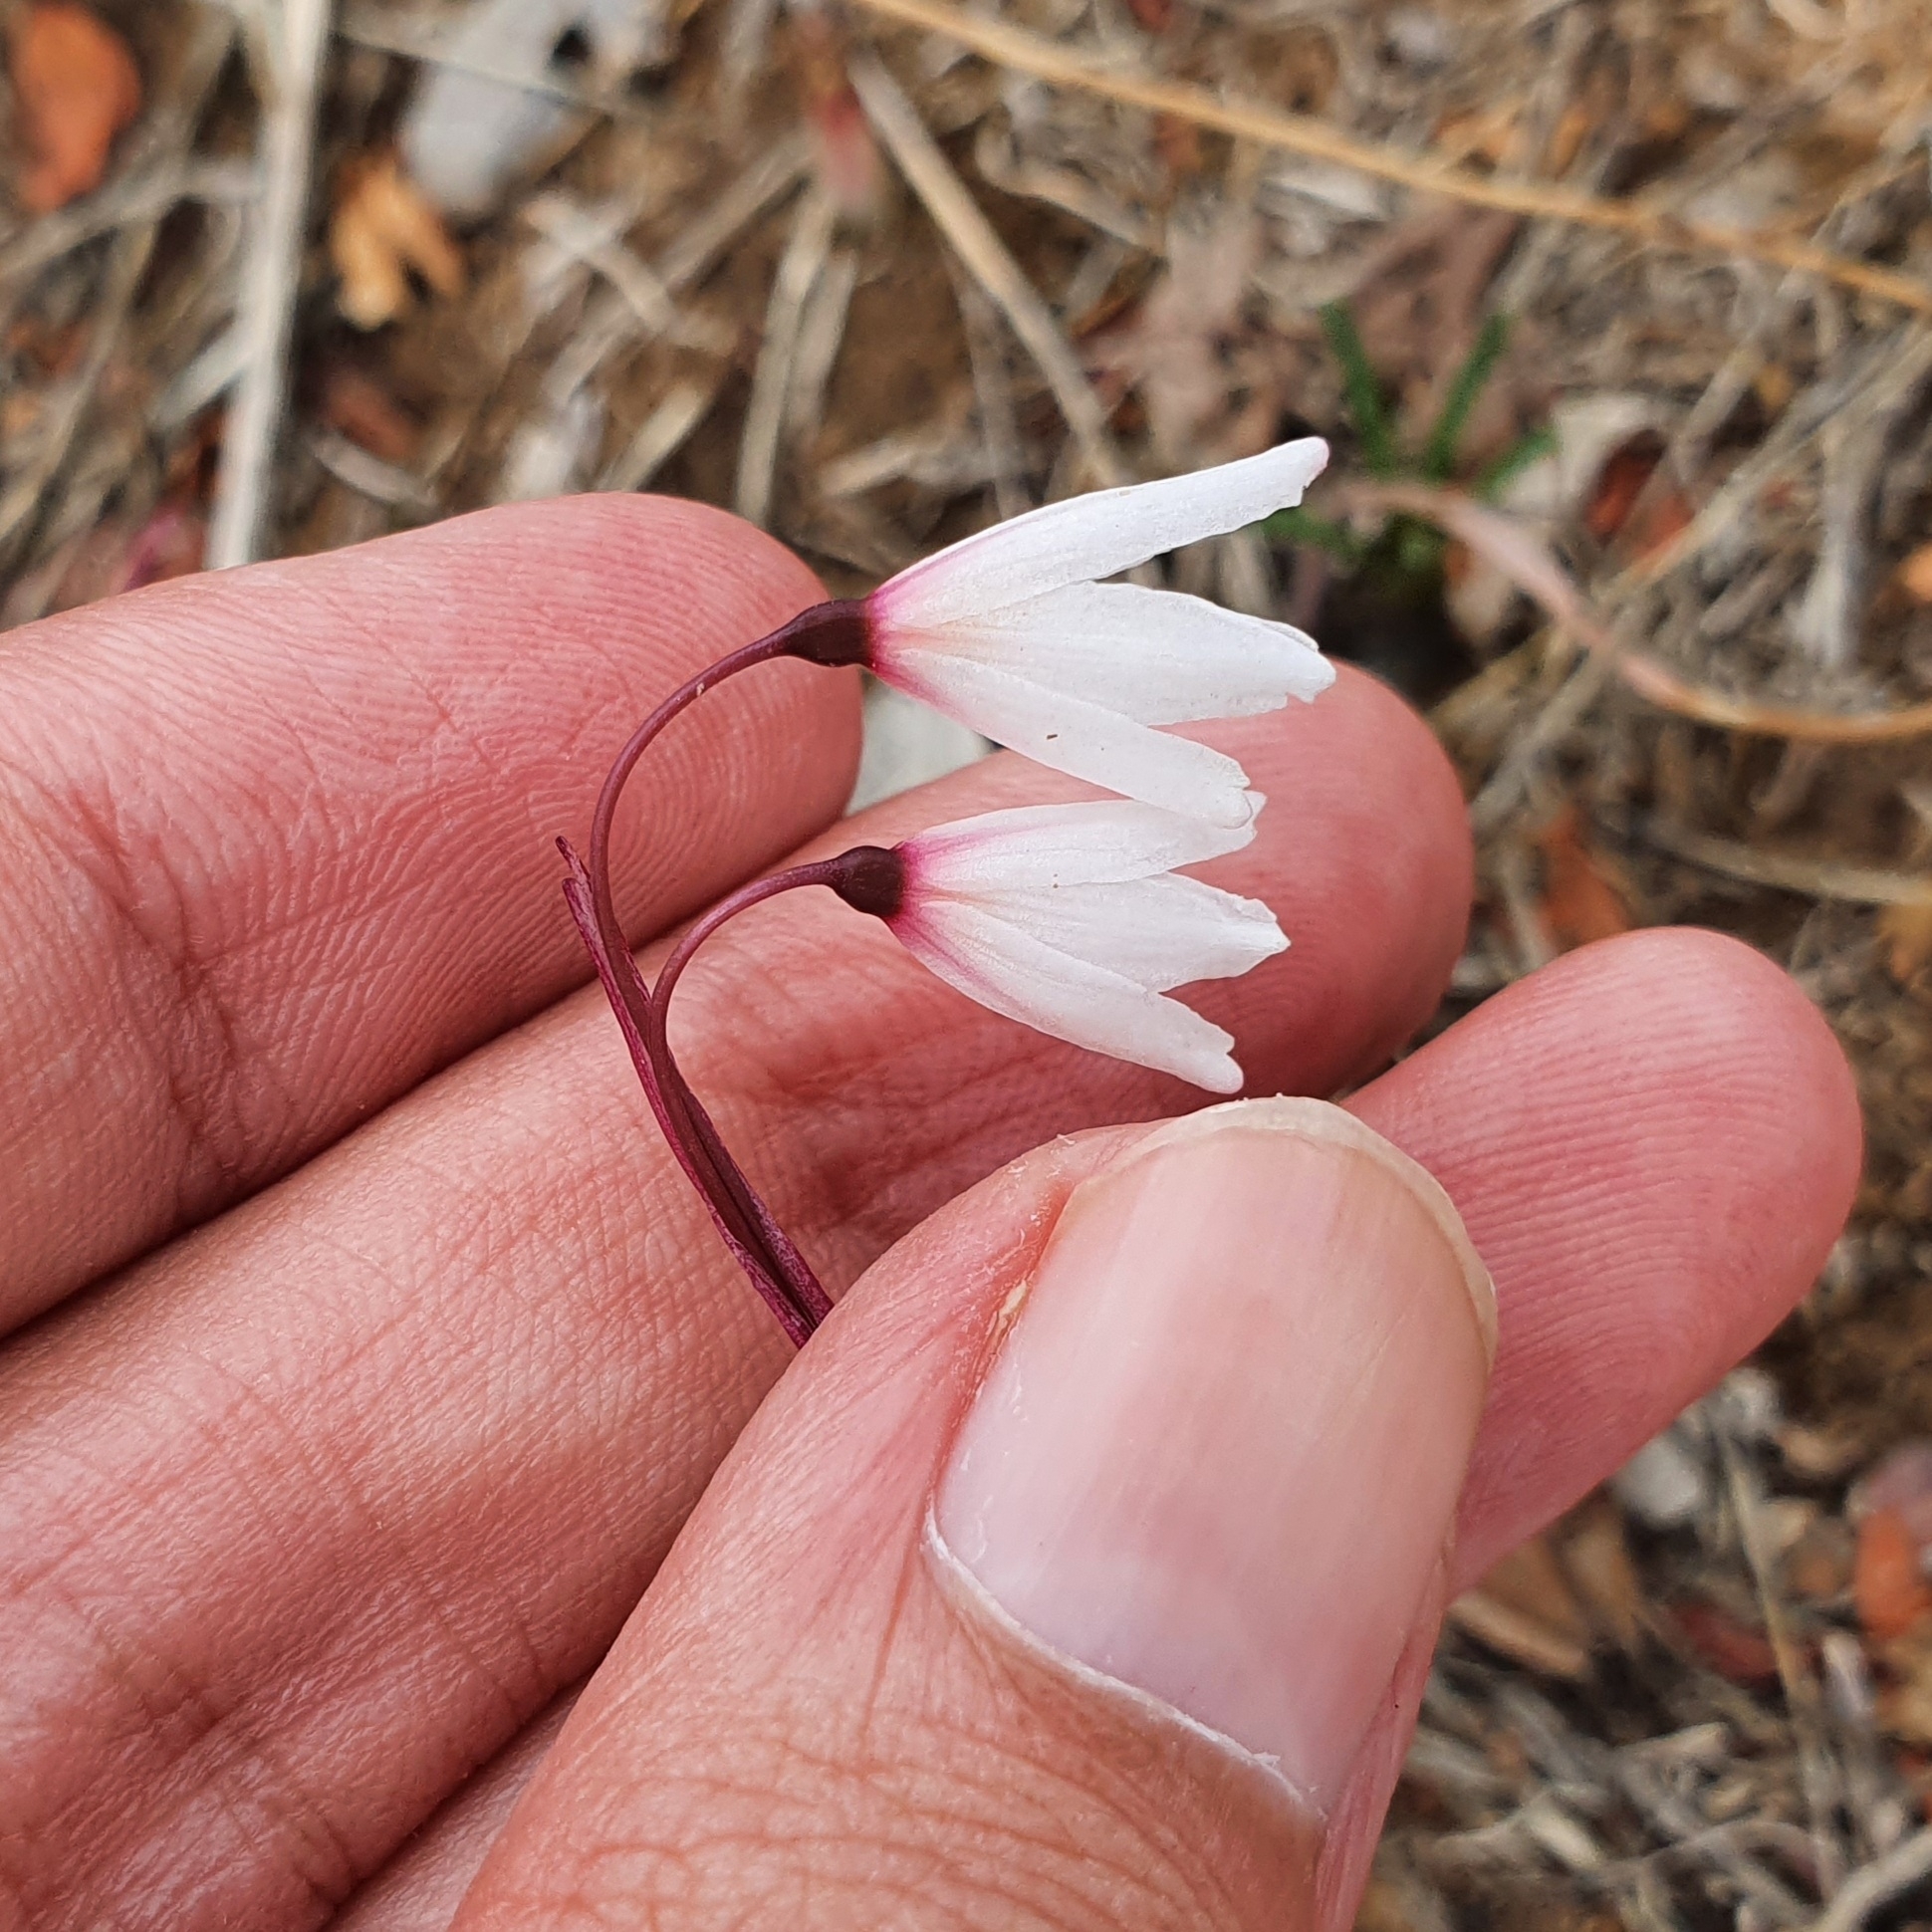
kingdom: Plantae
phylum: Tracheophyta
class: Liliopsida
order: Asparagales
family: Amaryllidaceae
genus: Acis
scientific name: Acis autumnalis
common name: Autumn snowflake
